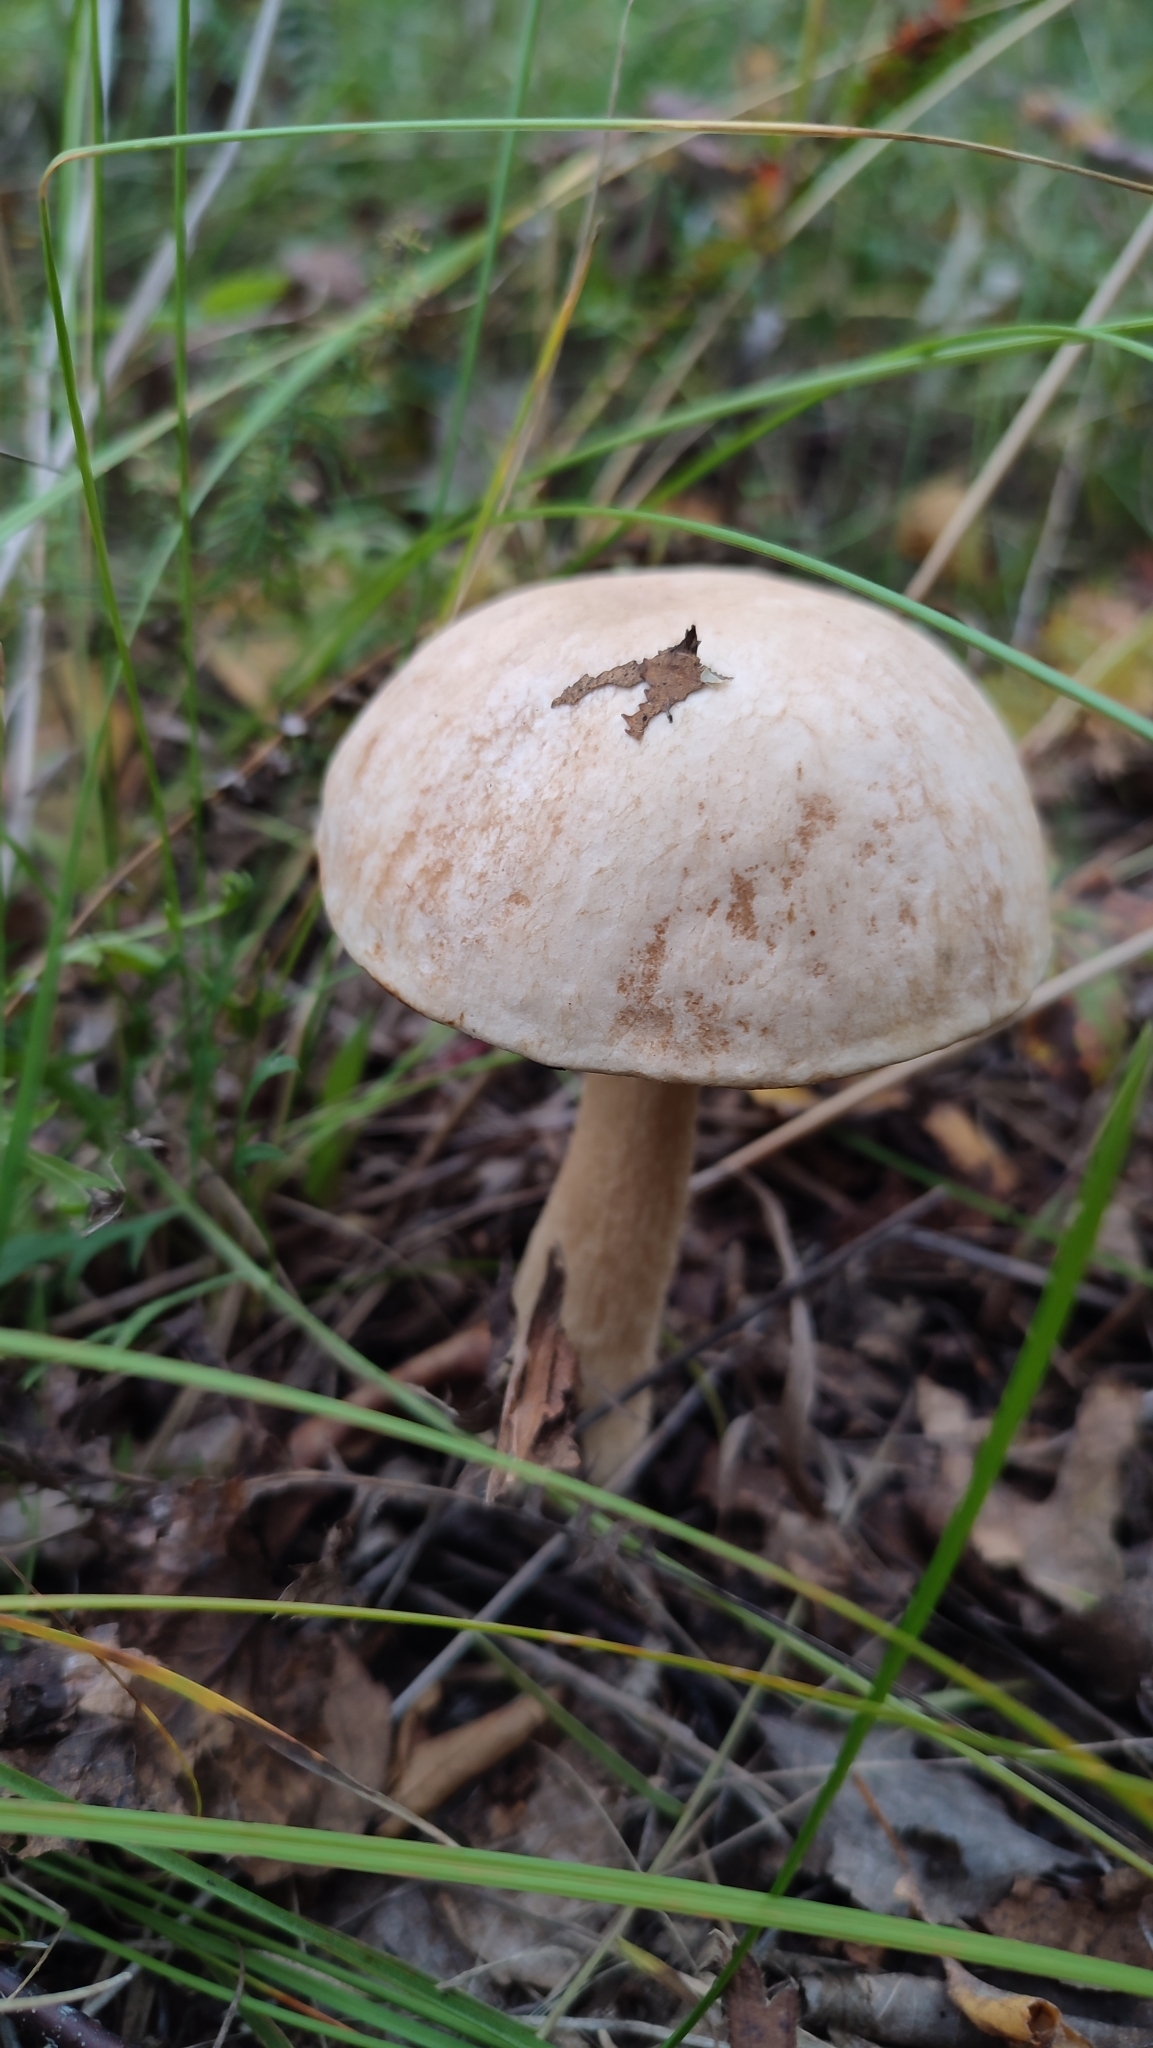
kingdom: Fungi
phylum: Basidiomycota
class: Agaricomycetes
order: Boletales
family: Boletaceae
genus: Leccinum
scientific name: Leccinum scabrum
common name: Blushing bolete
